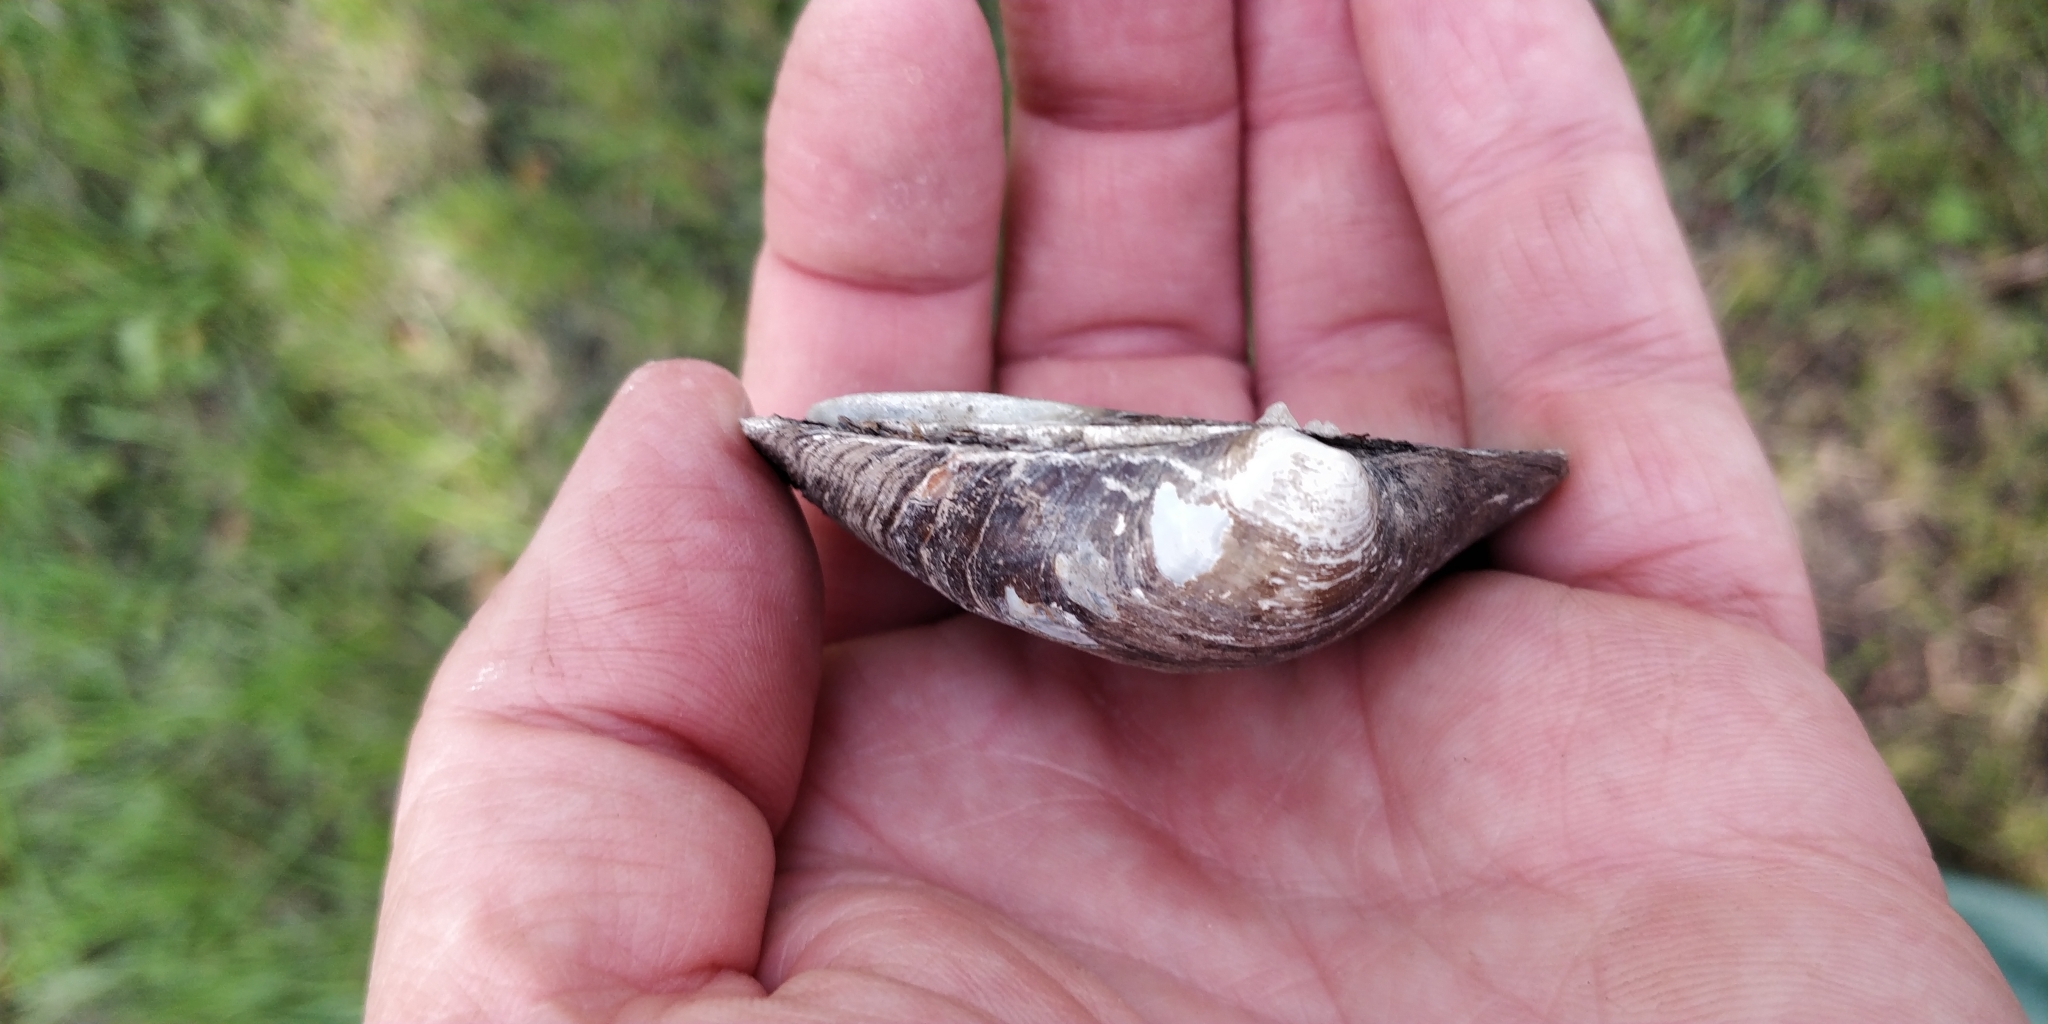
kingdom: Animalia
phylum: Mollusca
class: Bivalvia
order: Unionida
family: Unionidae
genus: Cyclonaias
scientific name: Cyclonaias pustulosa
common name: Pimpleback
